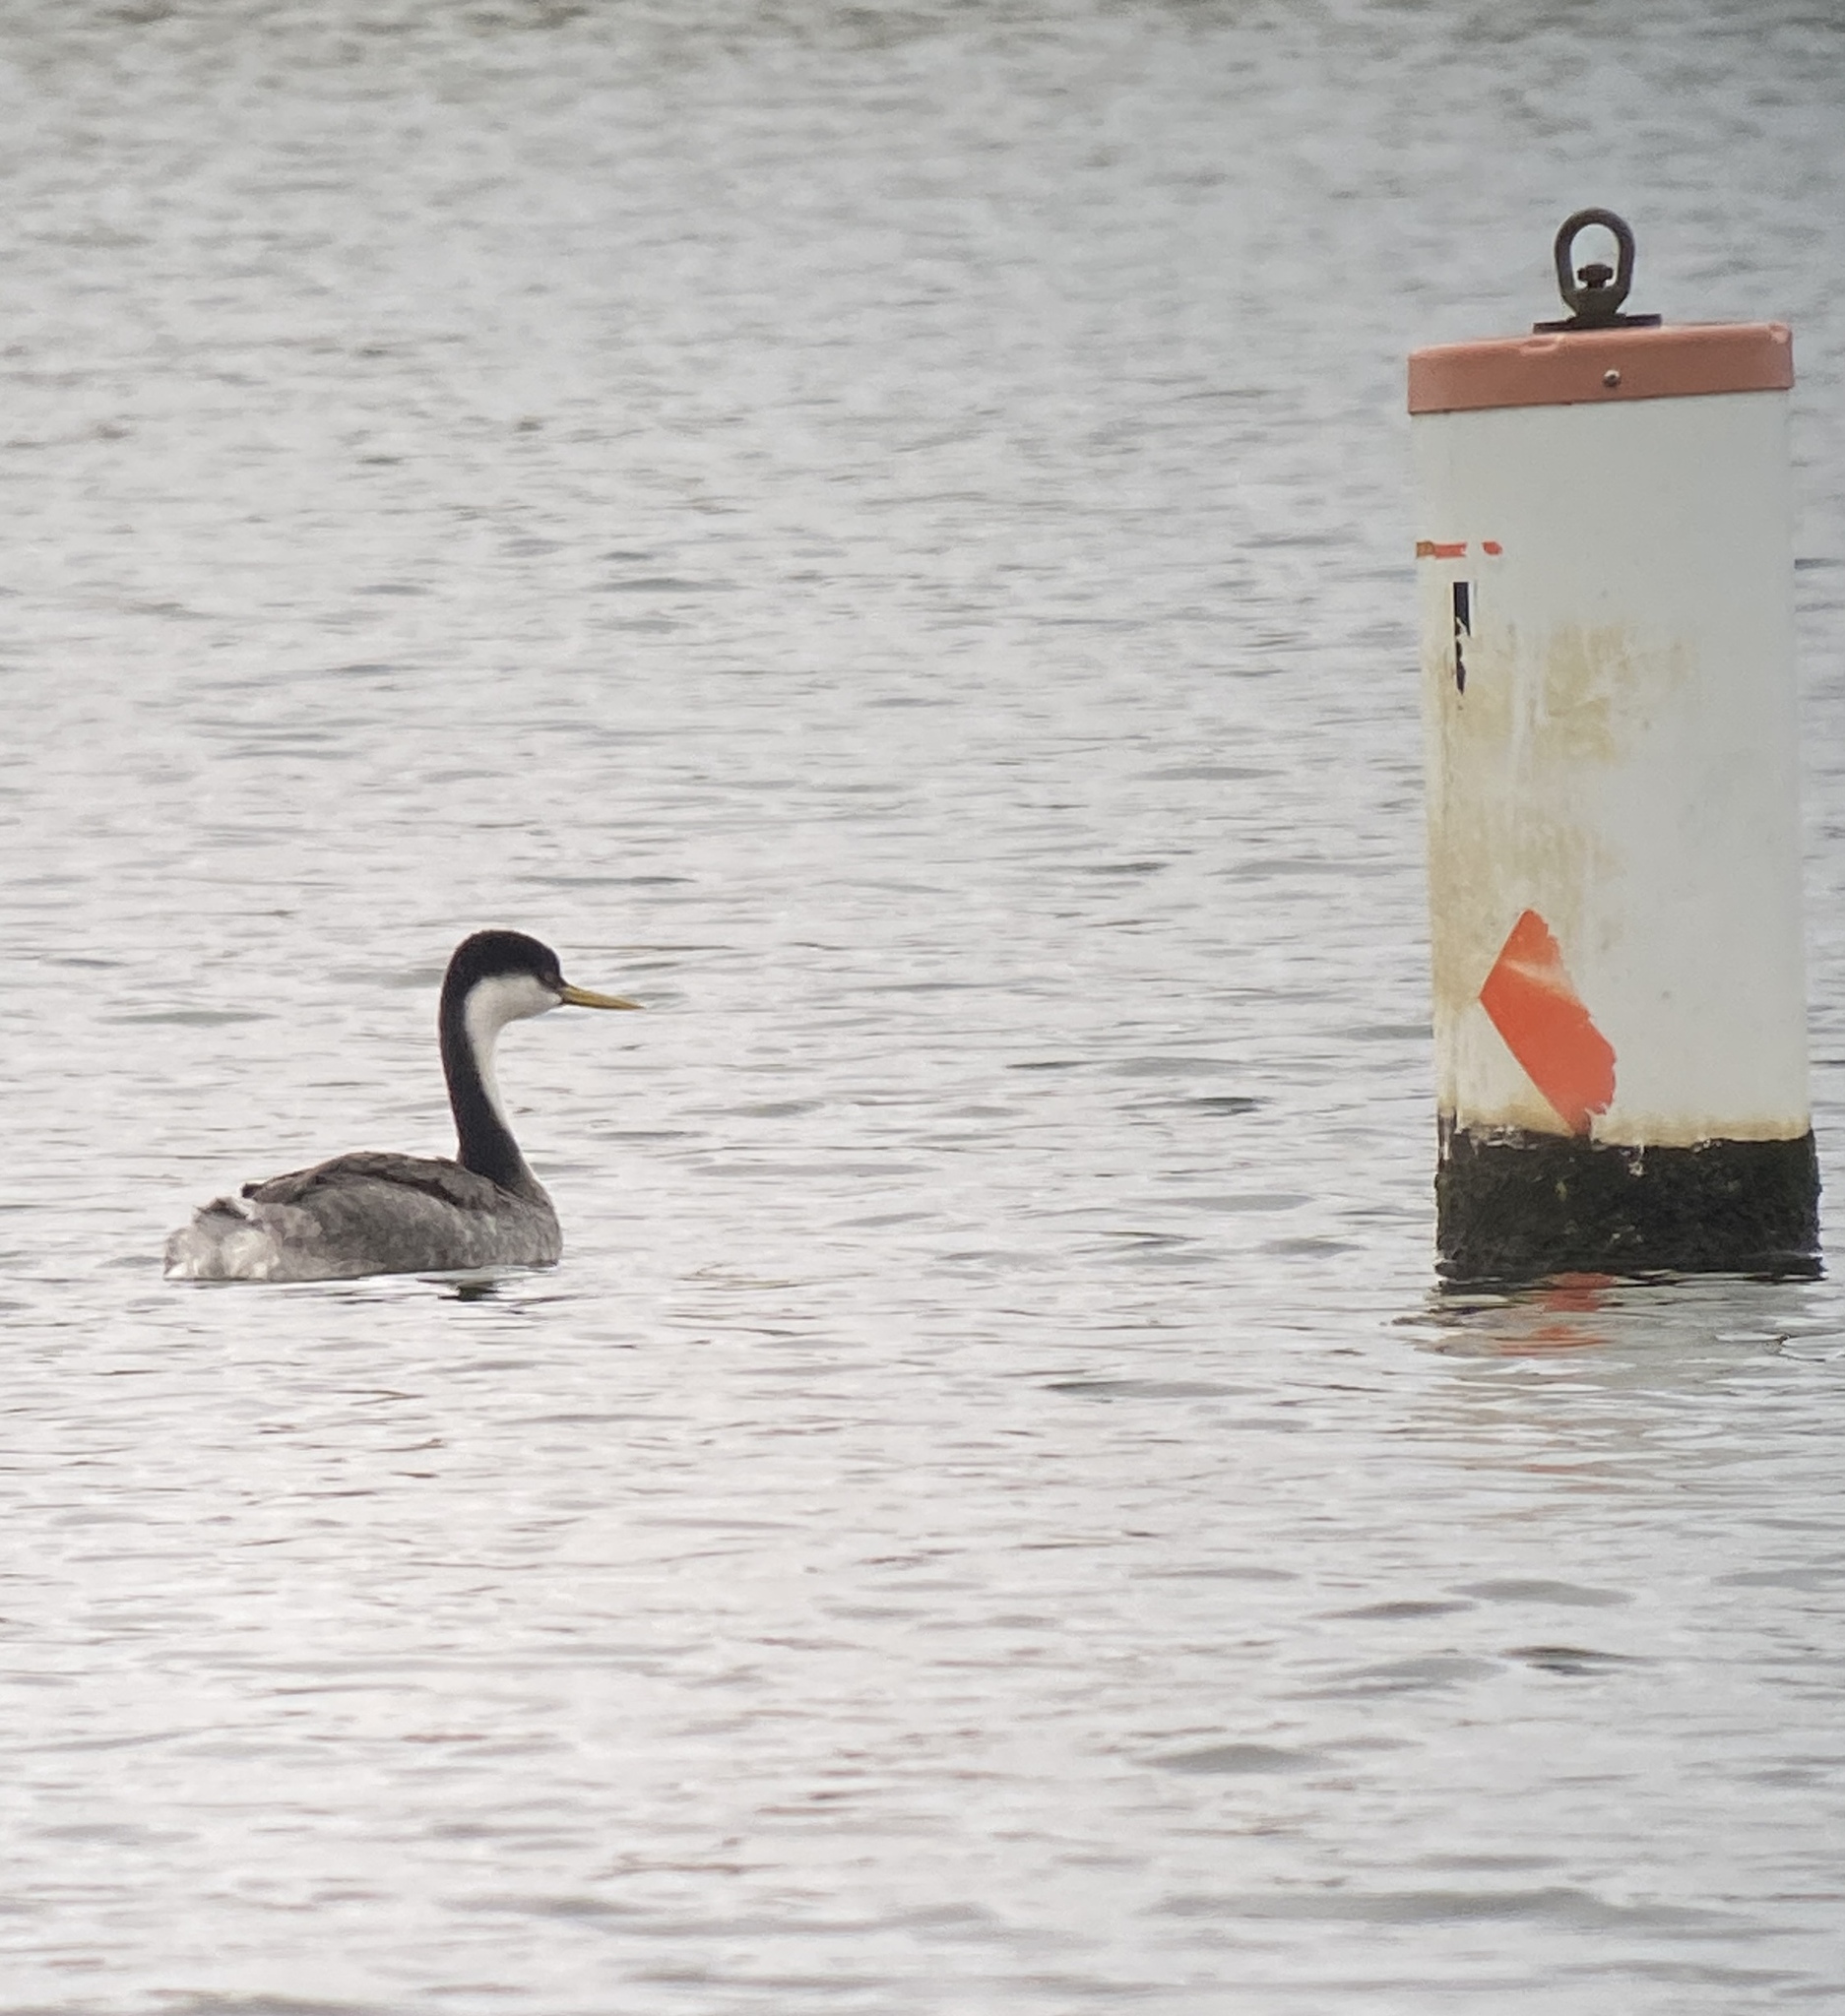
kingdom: Animalia
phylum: Chordata
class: Aves
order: Podicipediformes
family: Podicipedidae
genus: Aechmophorus
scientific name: Aechmophorus occidentalis
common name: Western grebe
